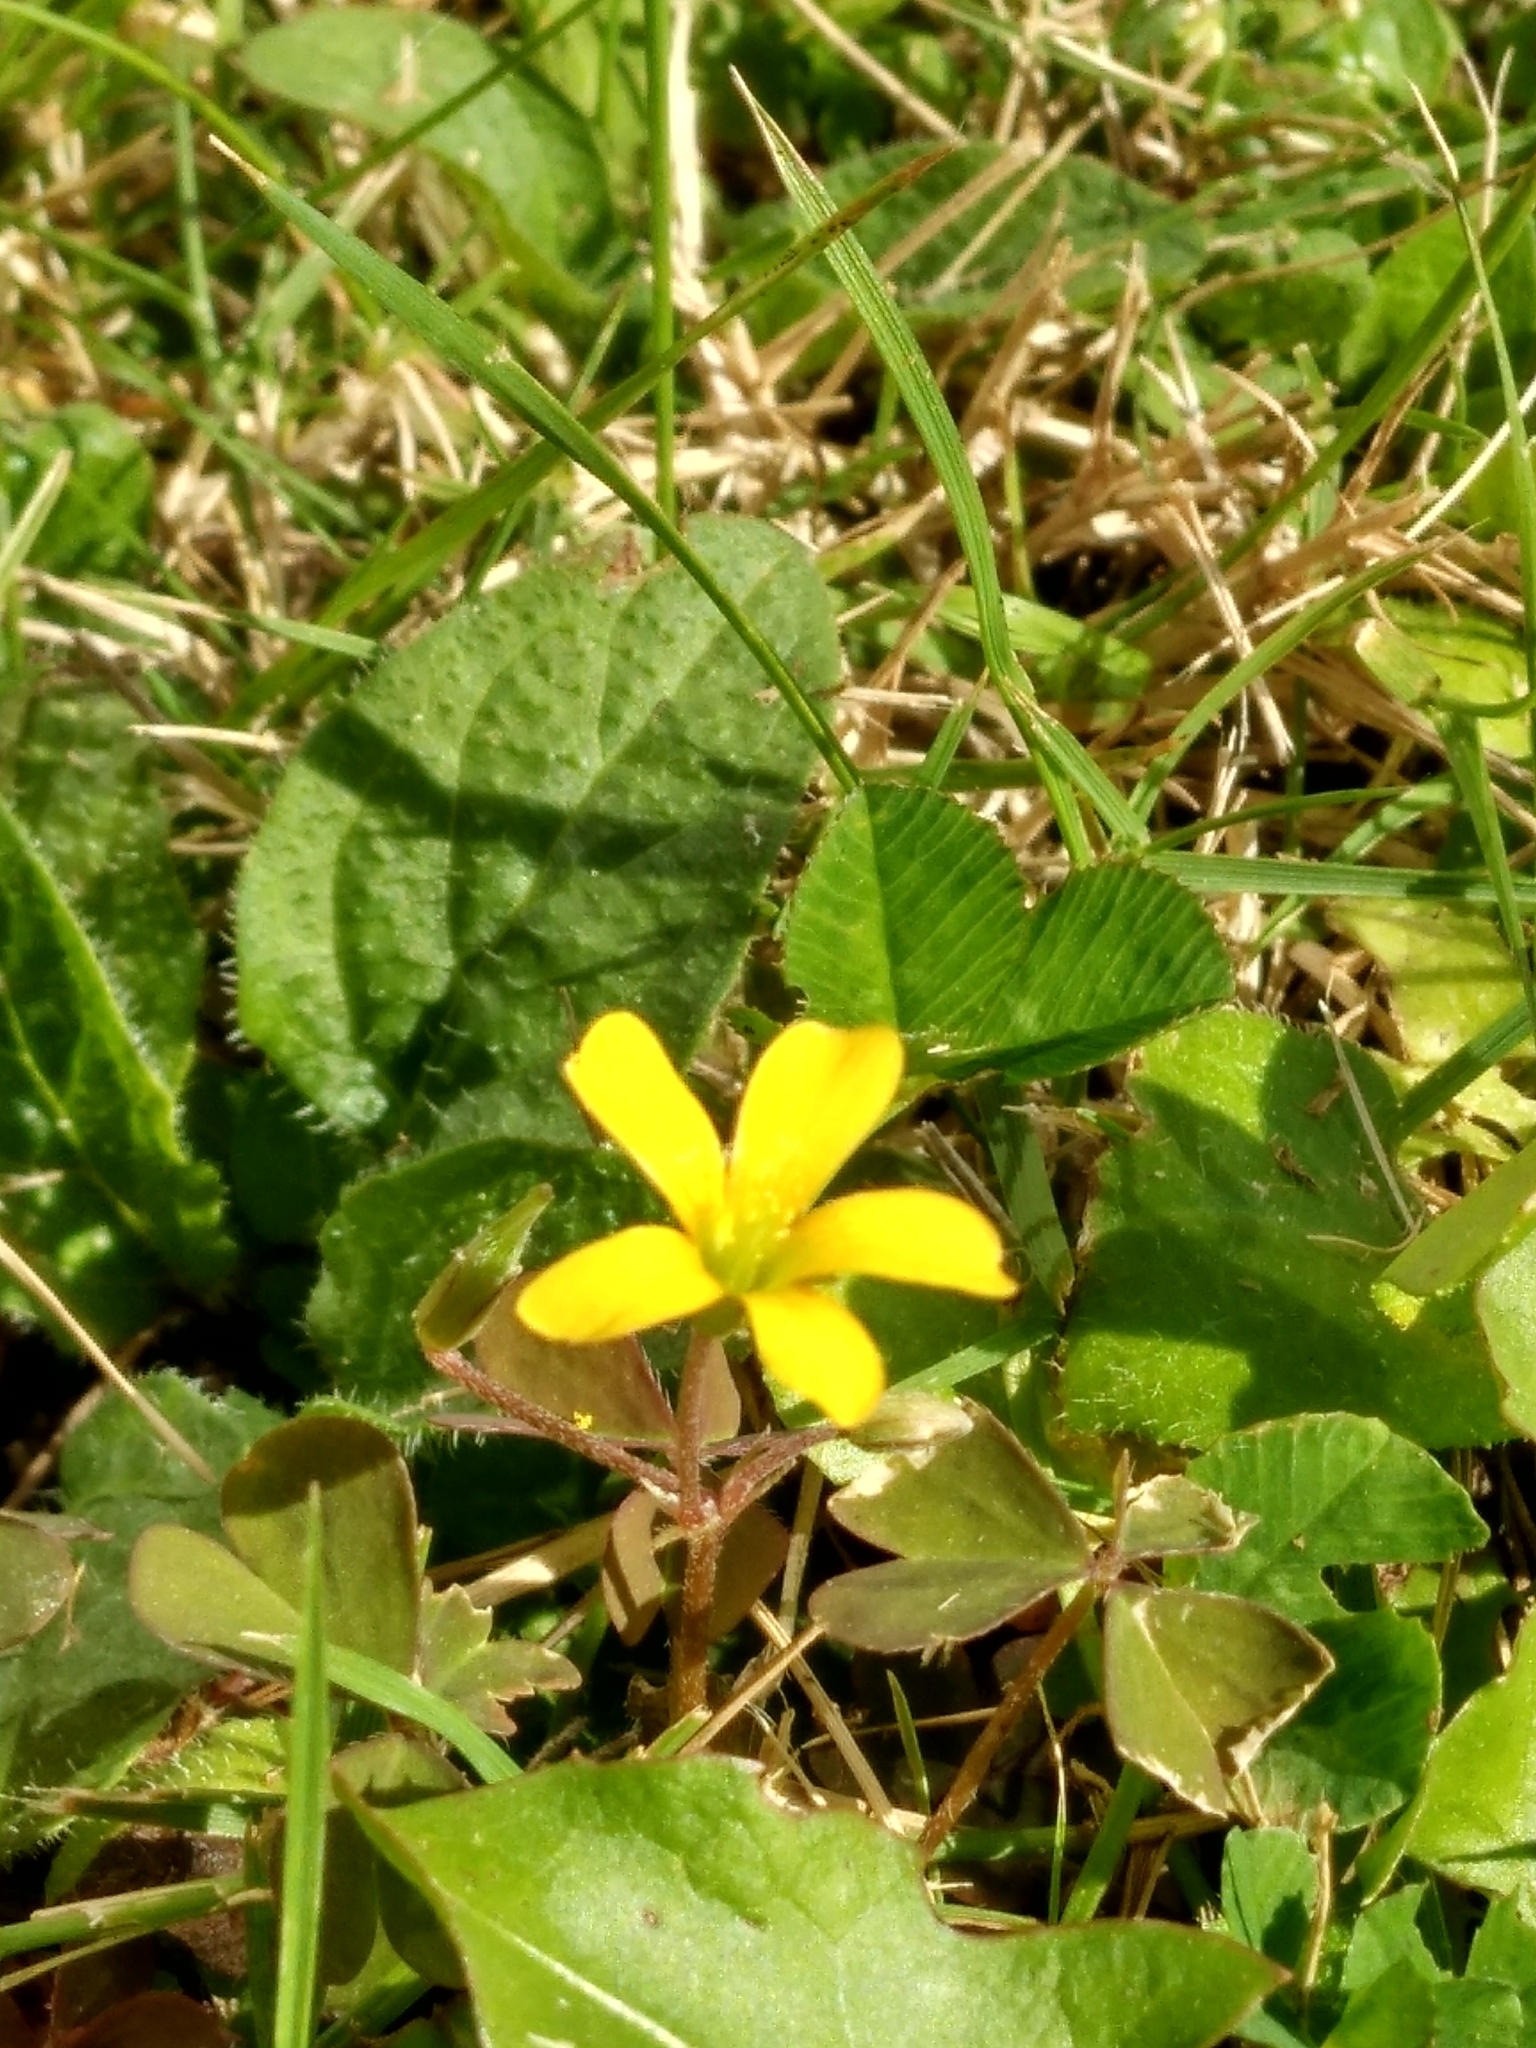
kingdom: Plantae
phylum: Tracheophyta
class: Magnoliopsida
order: Oxalidales
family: Oxalidaceae
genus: Oxalis
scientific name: Oxalis corniculata
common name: Procumbent yellow-sorrel
